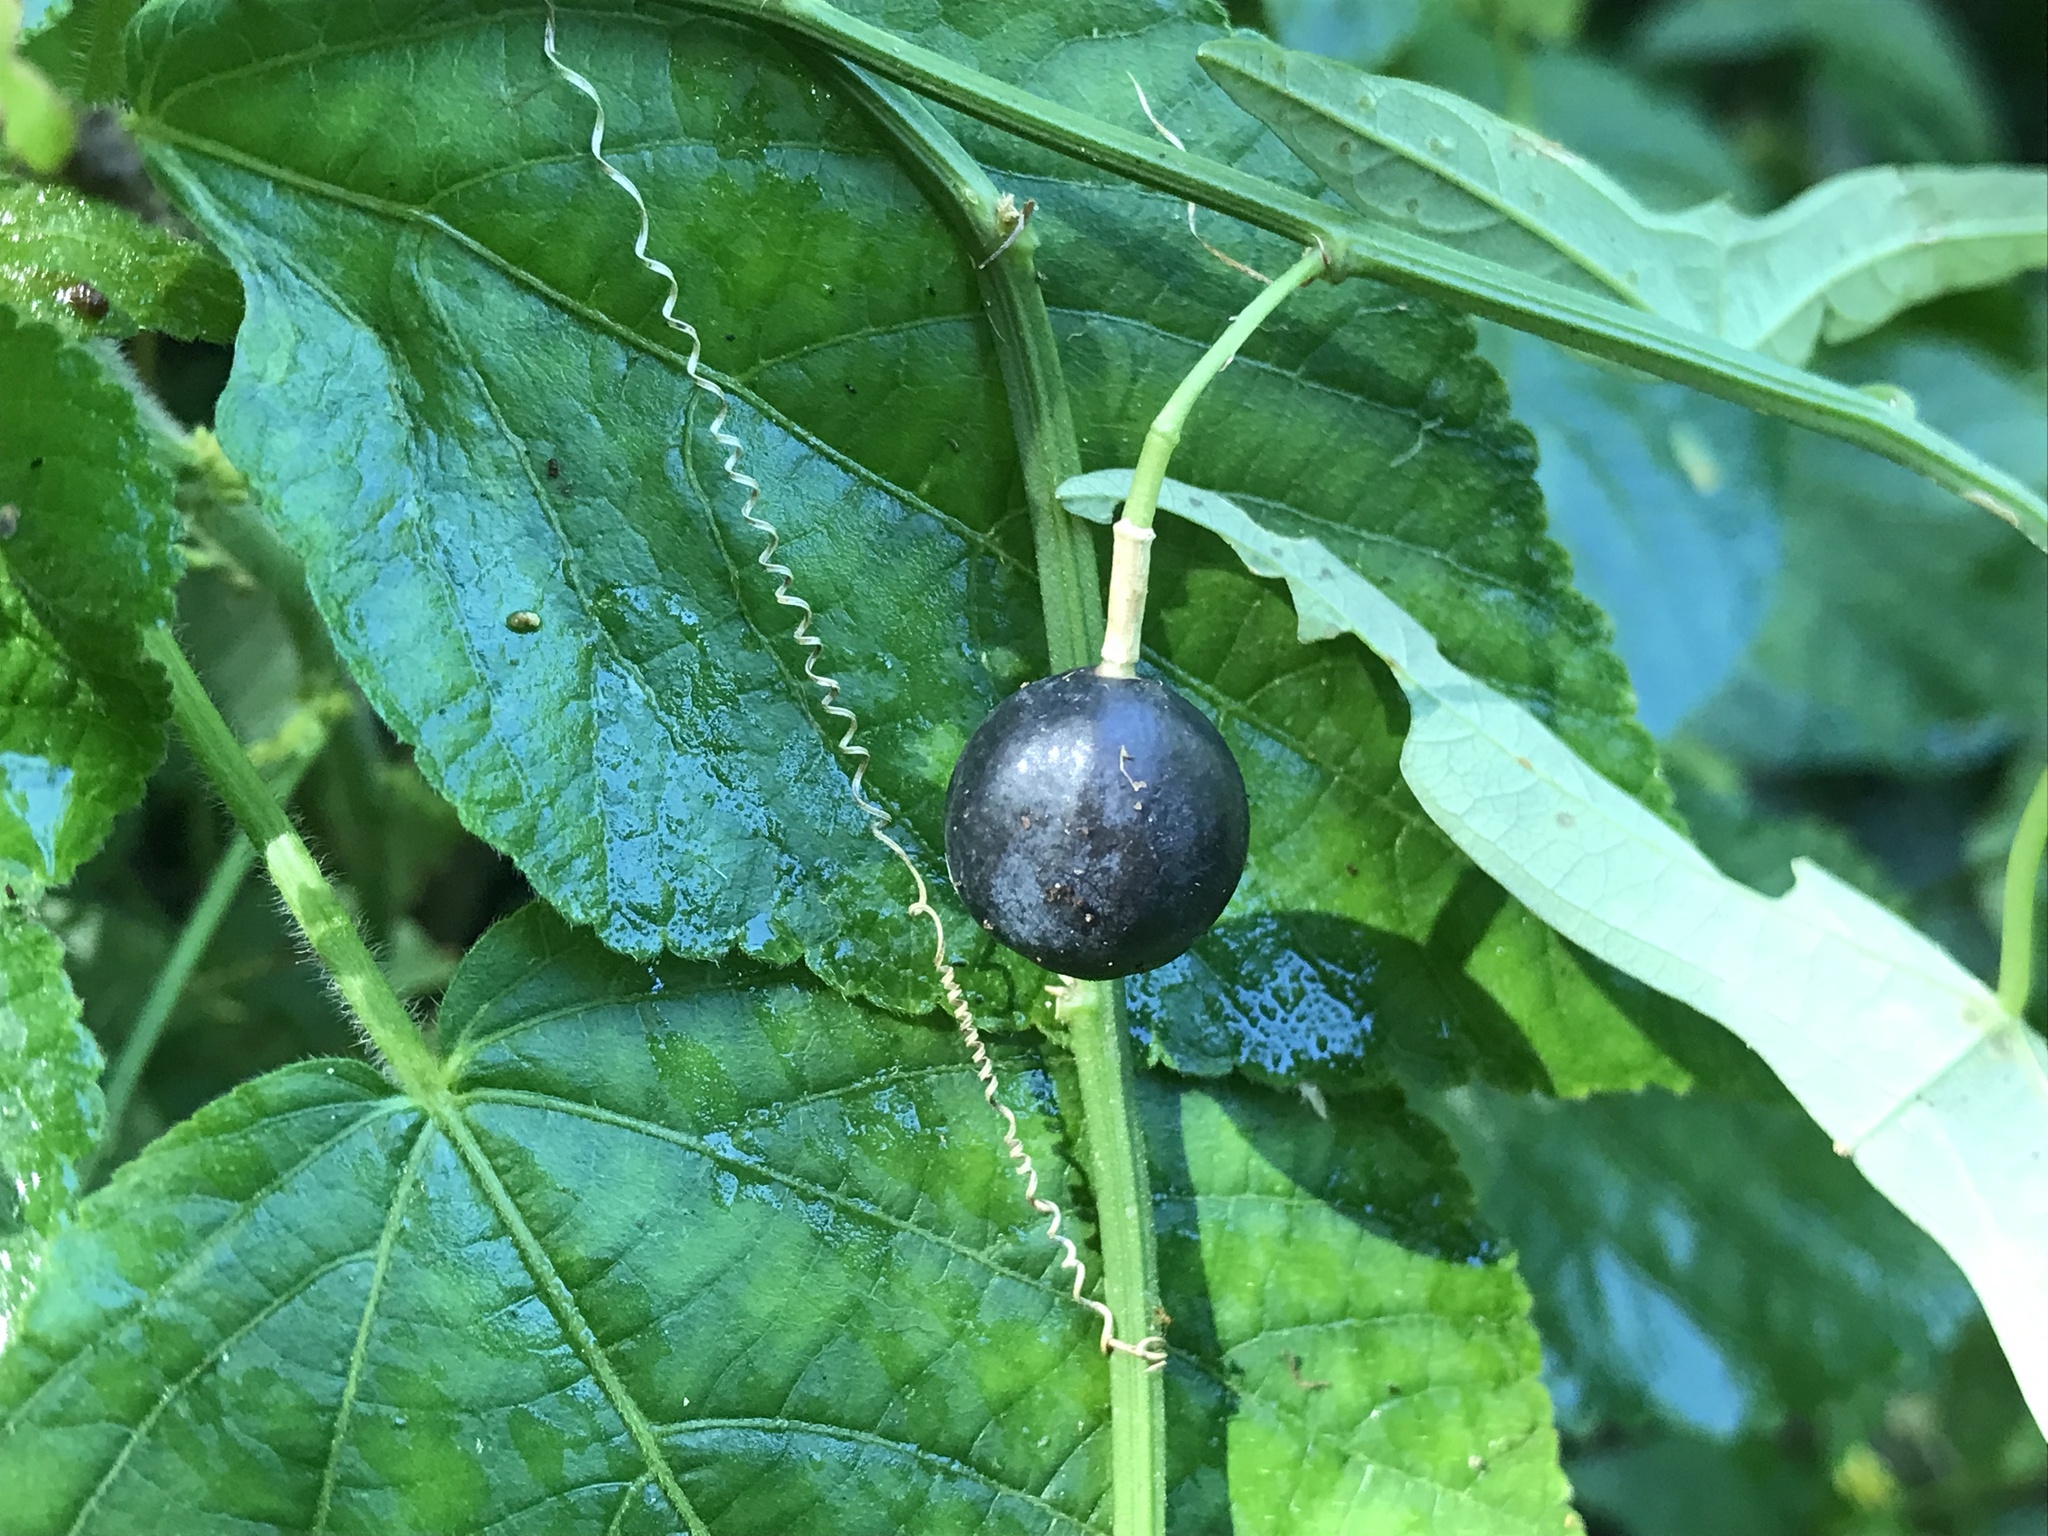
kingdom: Plantae
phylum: Tracheophyta
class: Magnoliopsida
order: Malpighiales
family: Passifloraceae
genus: Passiflora
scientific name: Passiflora misera
